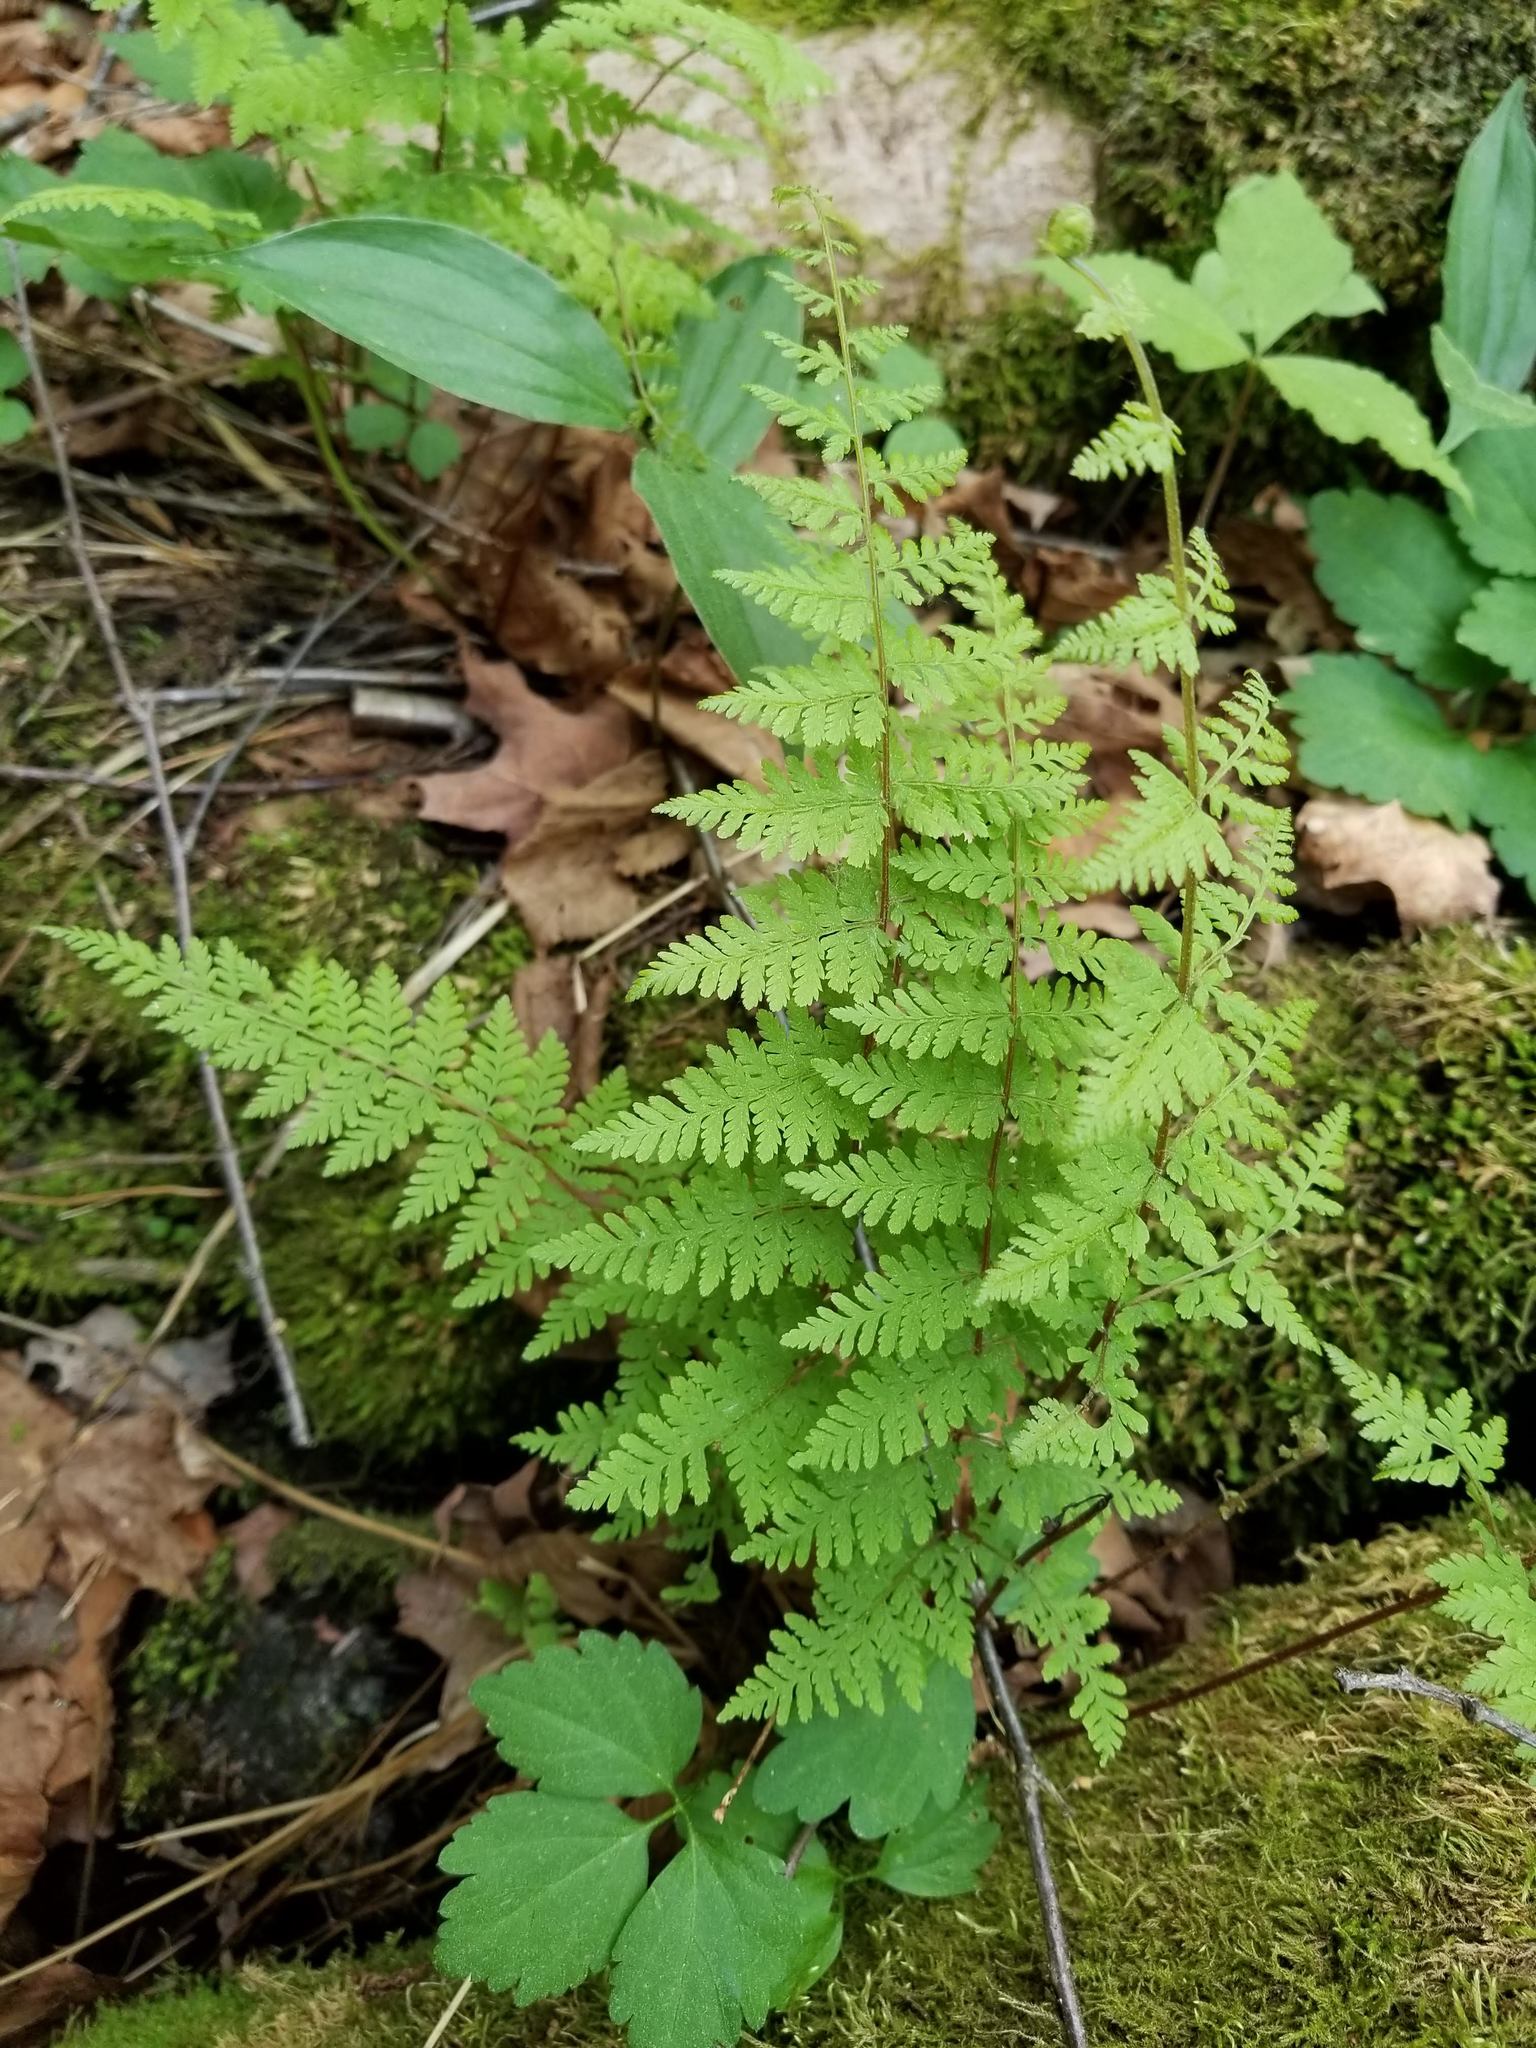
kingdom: Plantae
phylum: Tracheophyta
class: Polypodiopsida
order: Polypodiales
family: Cystopteridaceae
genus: Cystopteris
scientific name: Cystopteris bulbifera
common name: Bulblet bladder fern
